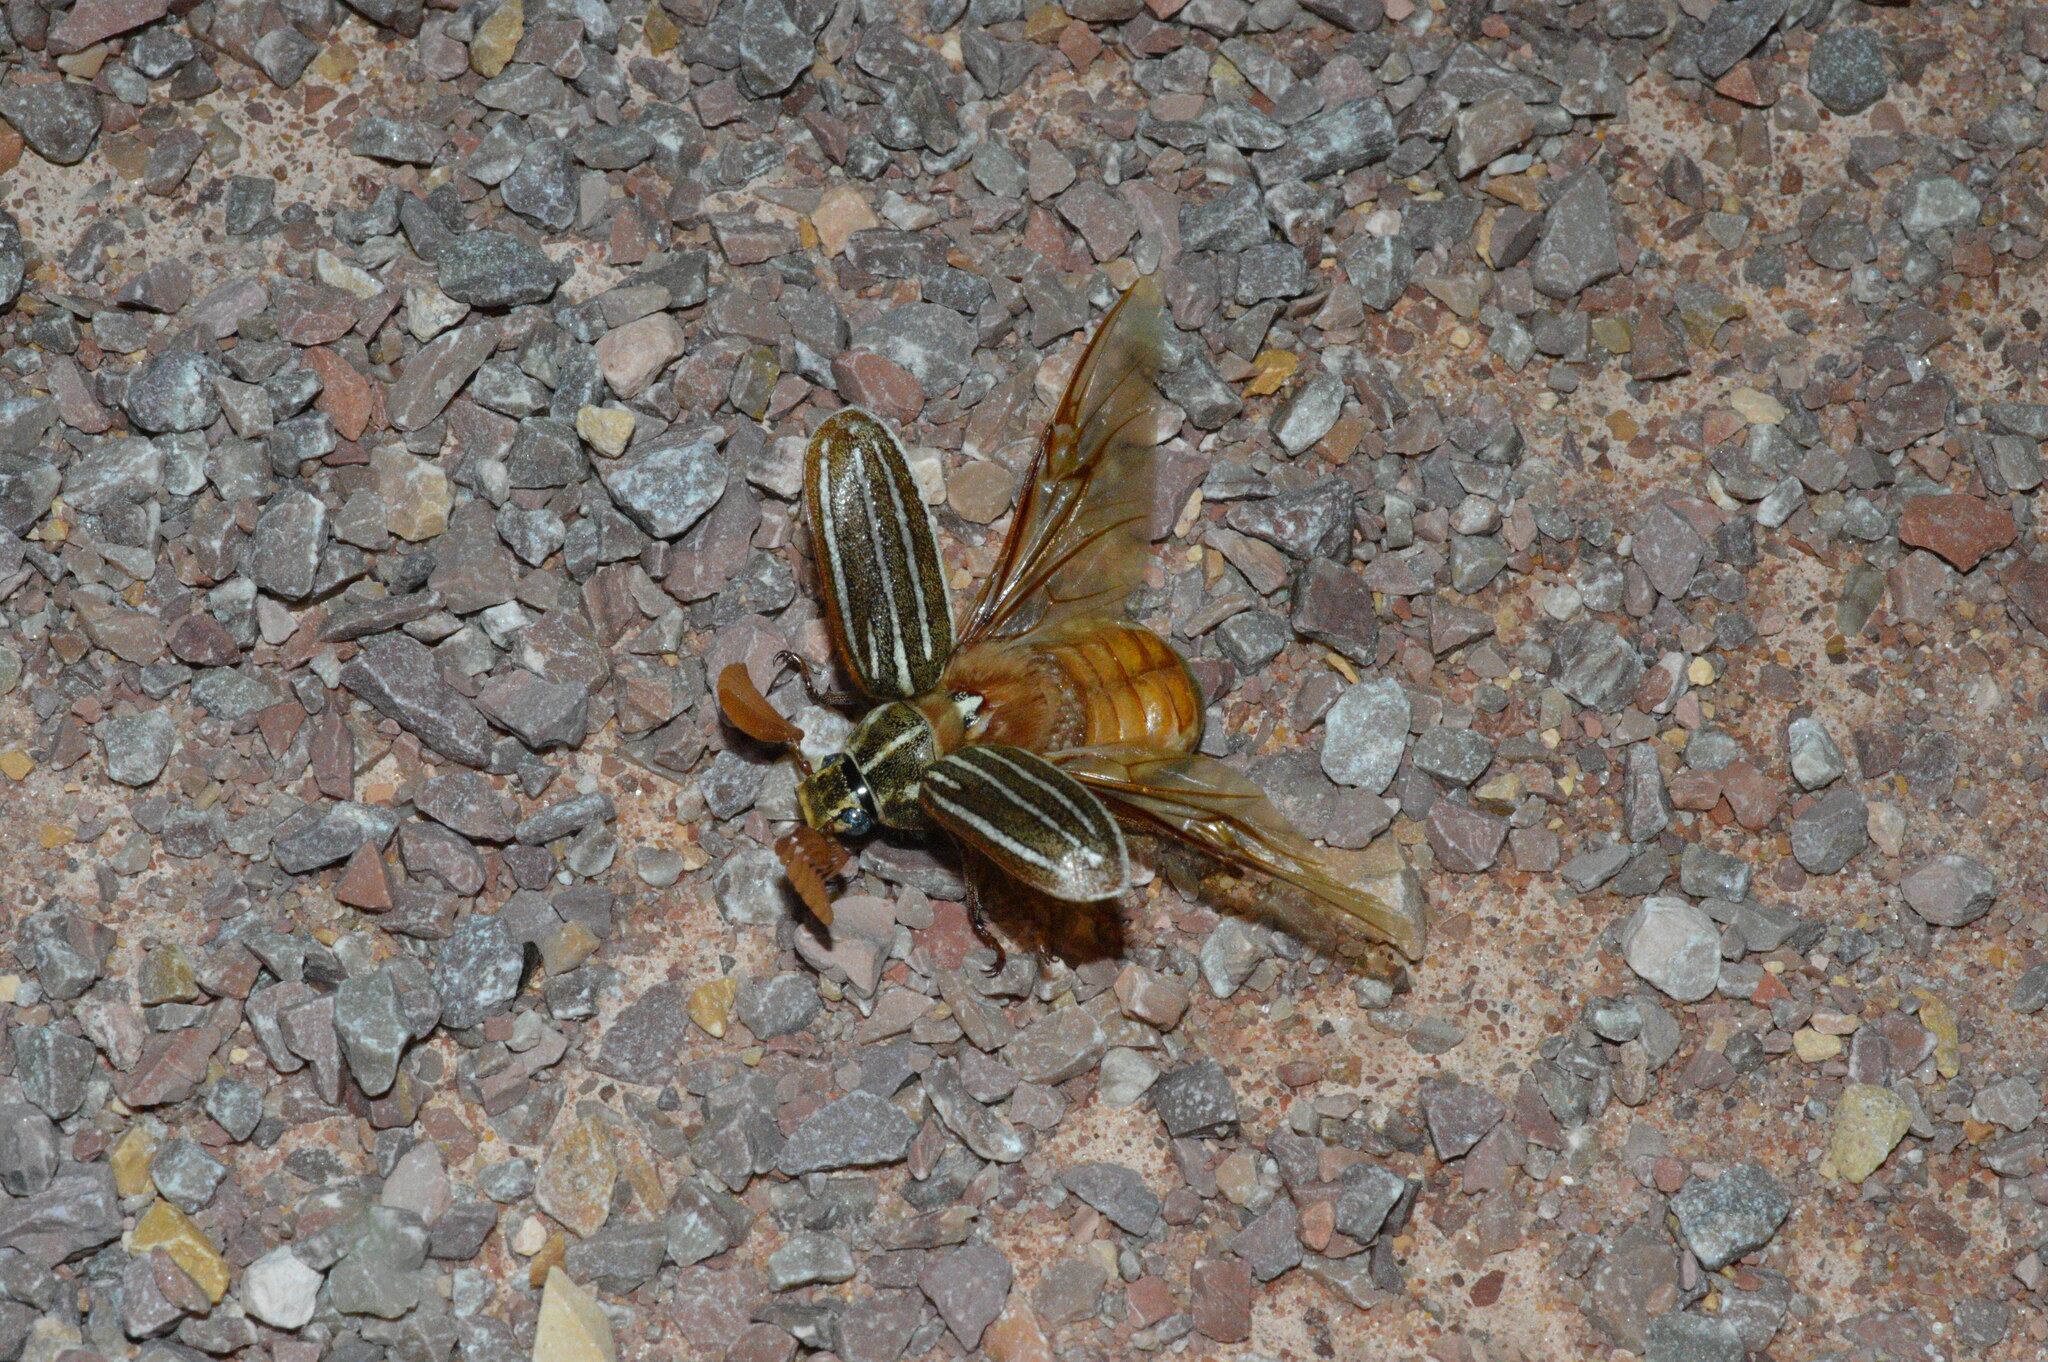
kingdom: Animalia
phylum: Arthropoda
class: Insecta
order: Coleoptera
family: Scarabaeidae
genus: Polyphylla
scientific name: Polyphylla decemlineata
